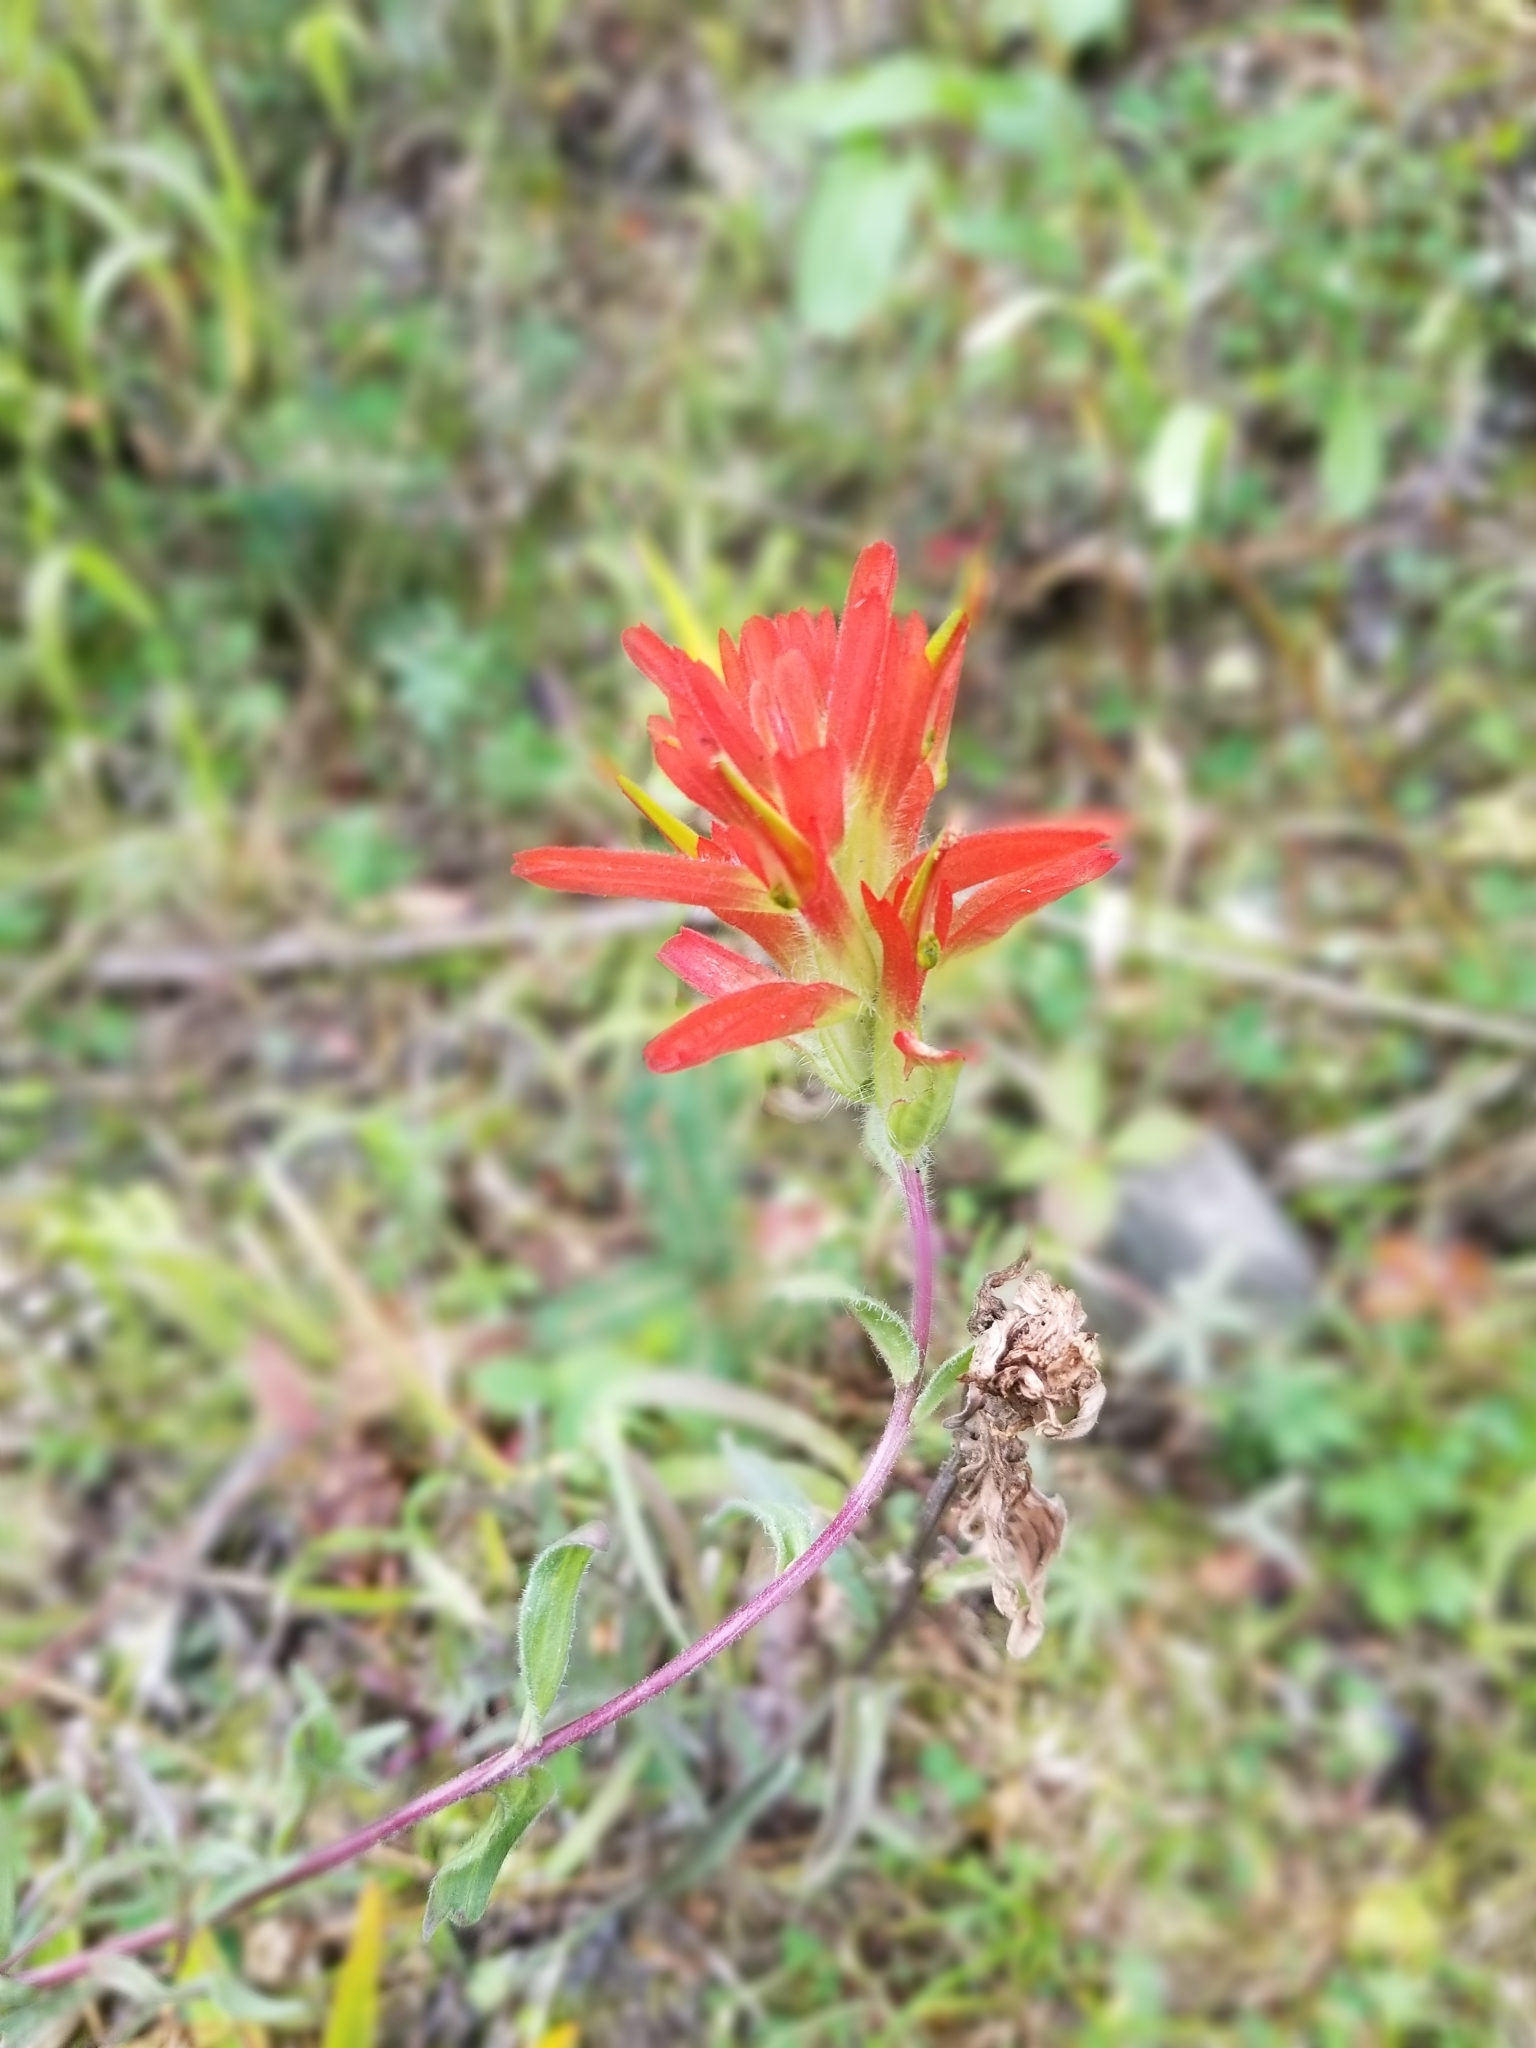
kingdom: Plantae
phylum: Tracheophyta
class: Magnoliopsida
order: Lamiales
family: Orobanchaceae
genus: Castilleja
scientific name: Castilleja miniata
